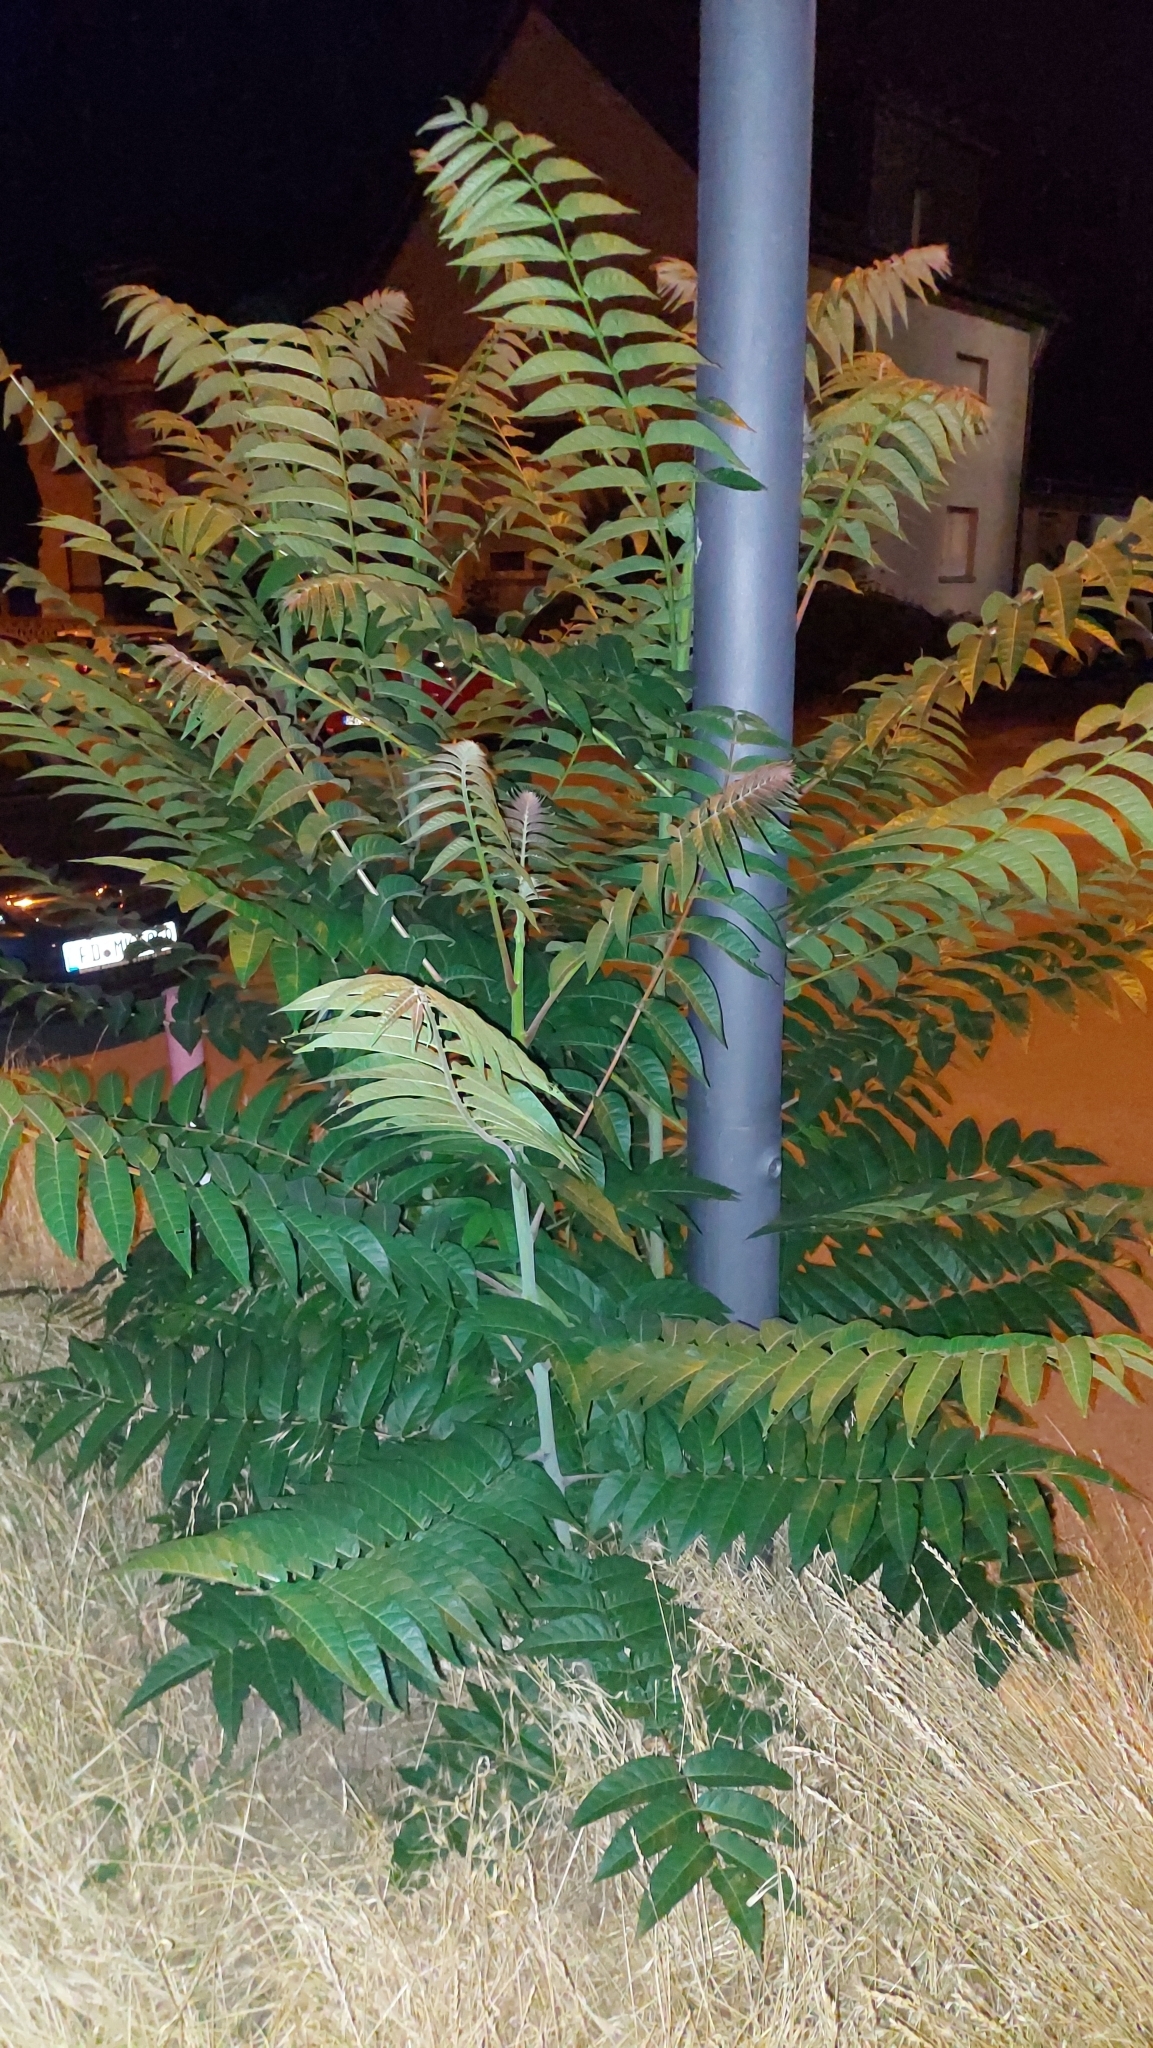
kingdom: Plantae
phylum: Tracheophyta
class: Magnoliopsida
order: Sapindales
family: Simaroubaceae
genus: Ailanthus
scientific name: Ailanthus altissima
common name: Tree-of-heaven
